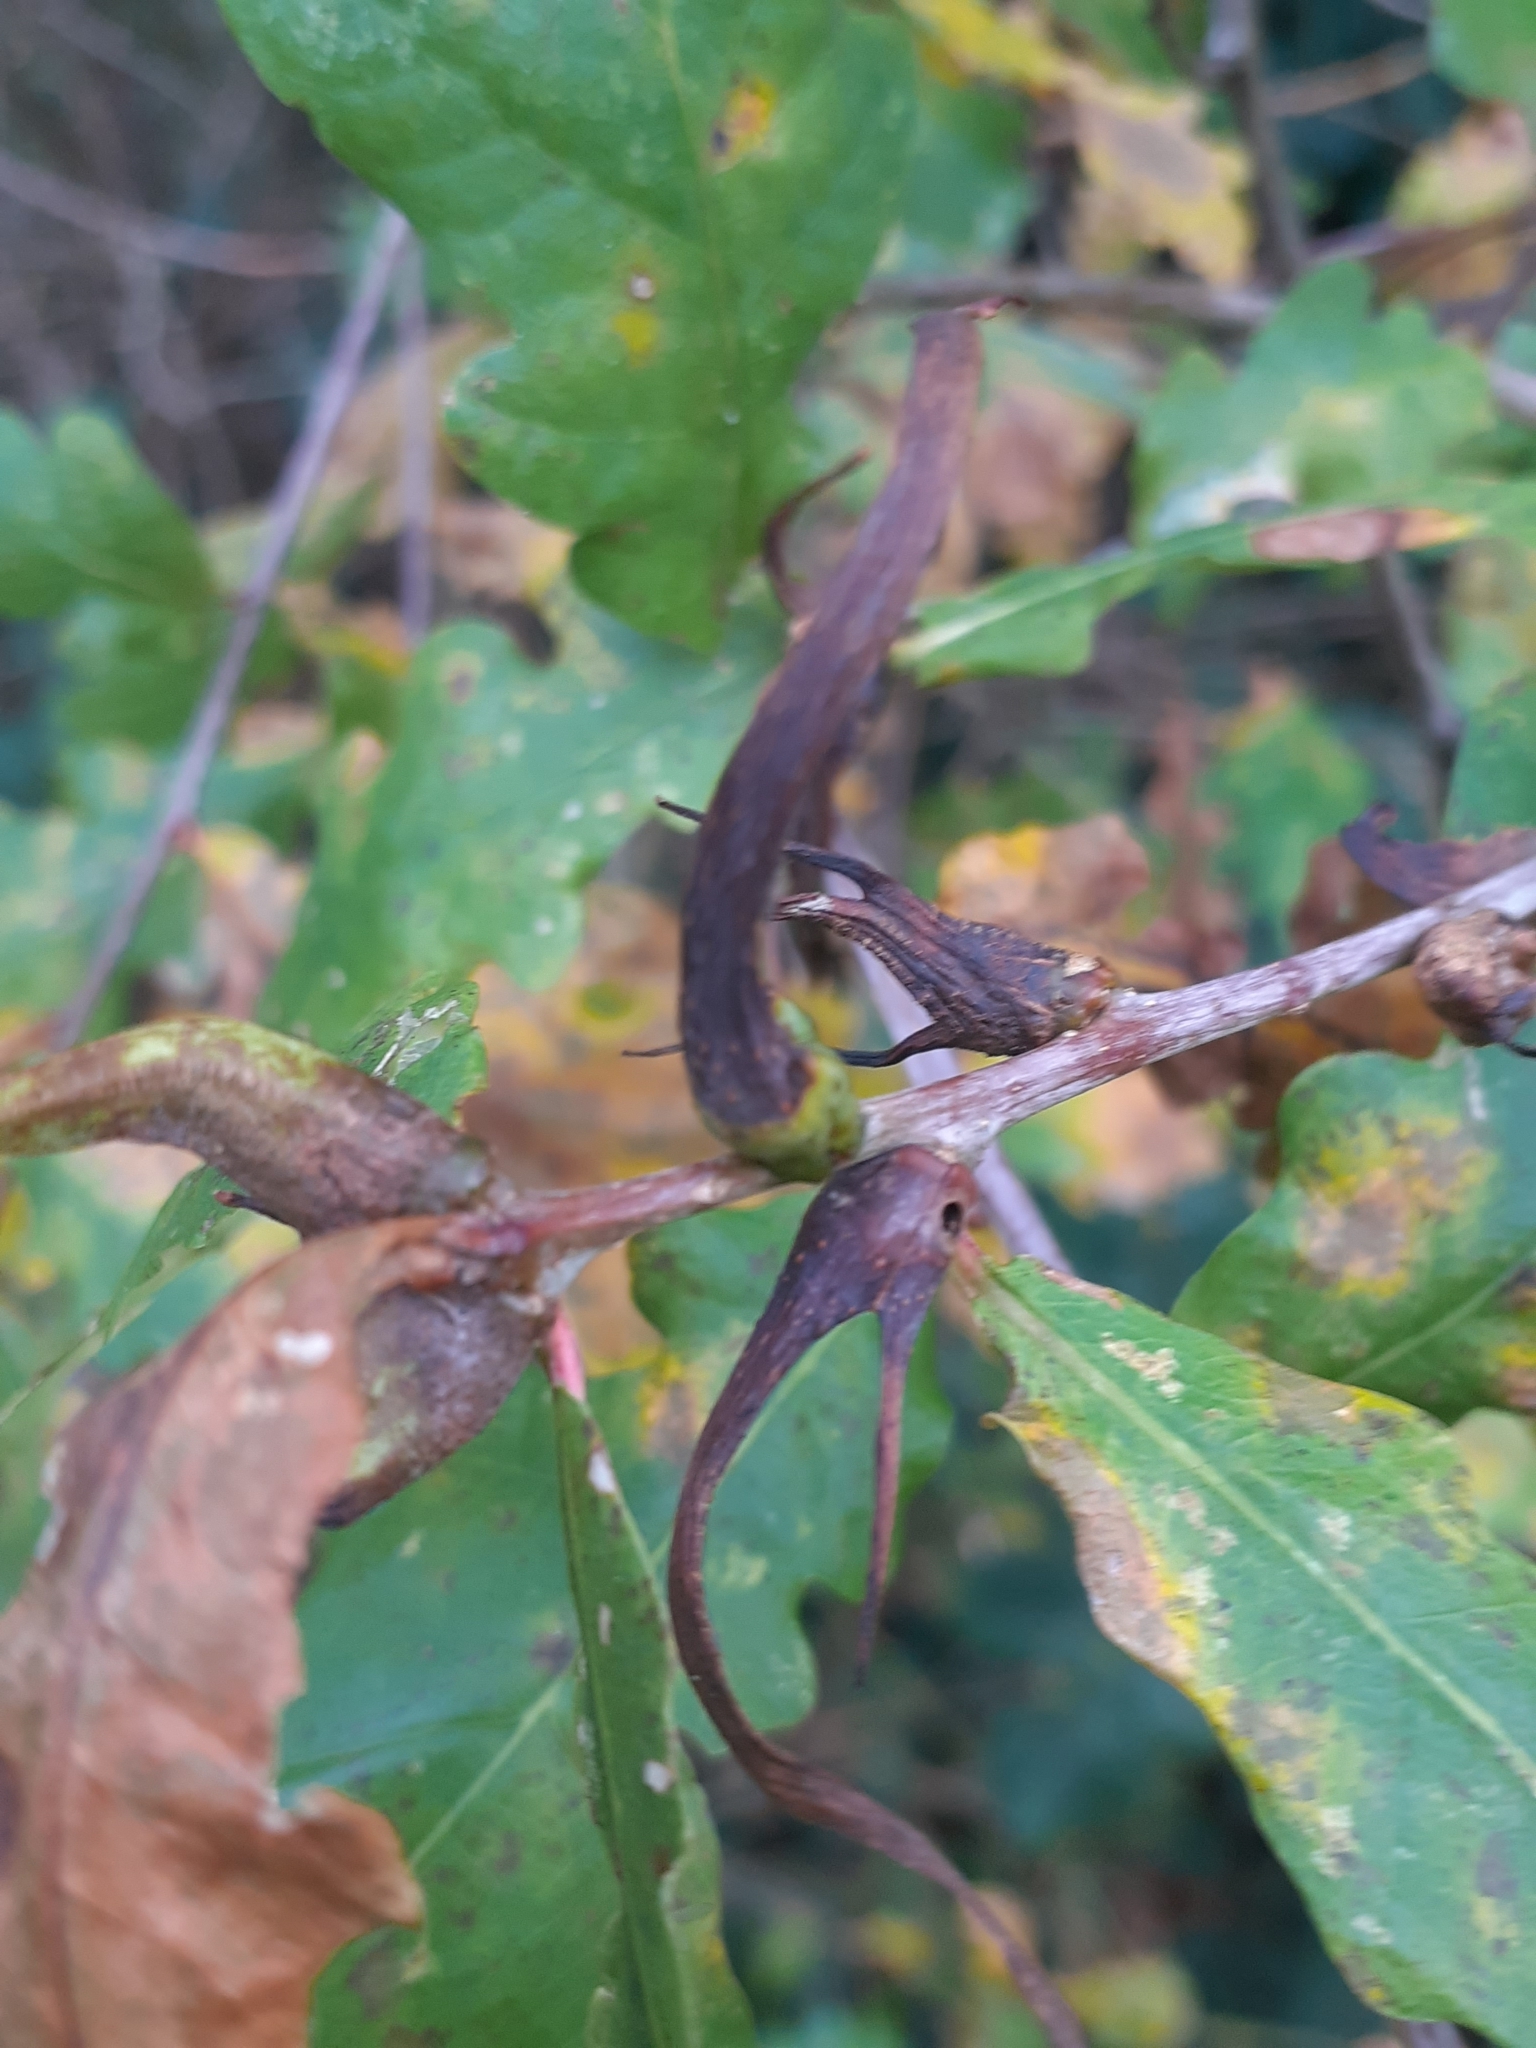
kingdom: Animalia
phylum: Arthropoda
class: Insecta
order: Hymenoptera
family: Cynipidae
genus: Andricus
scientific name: Andricus aries
